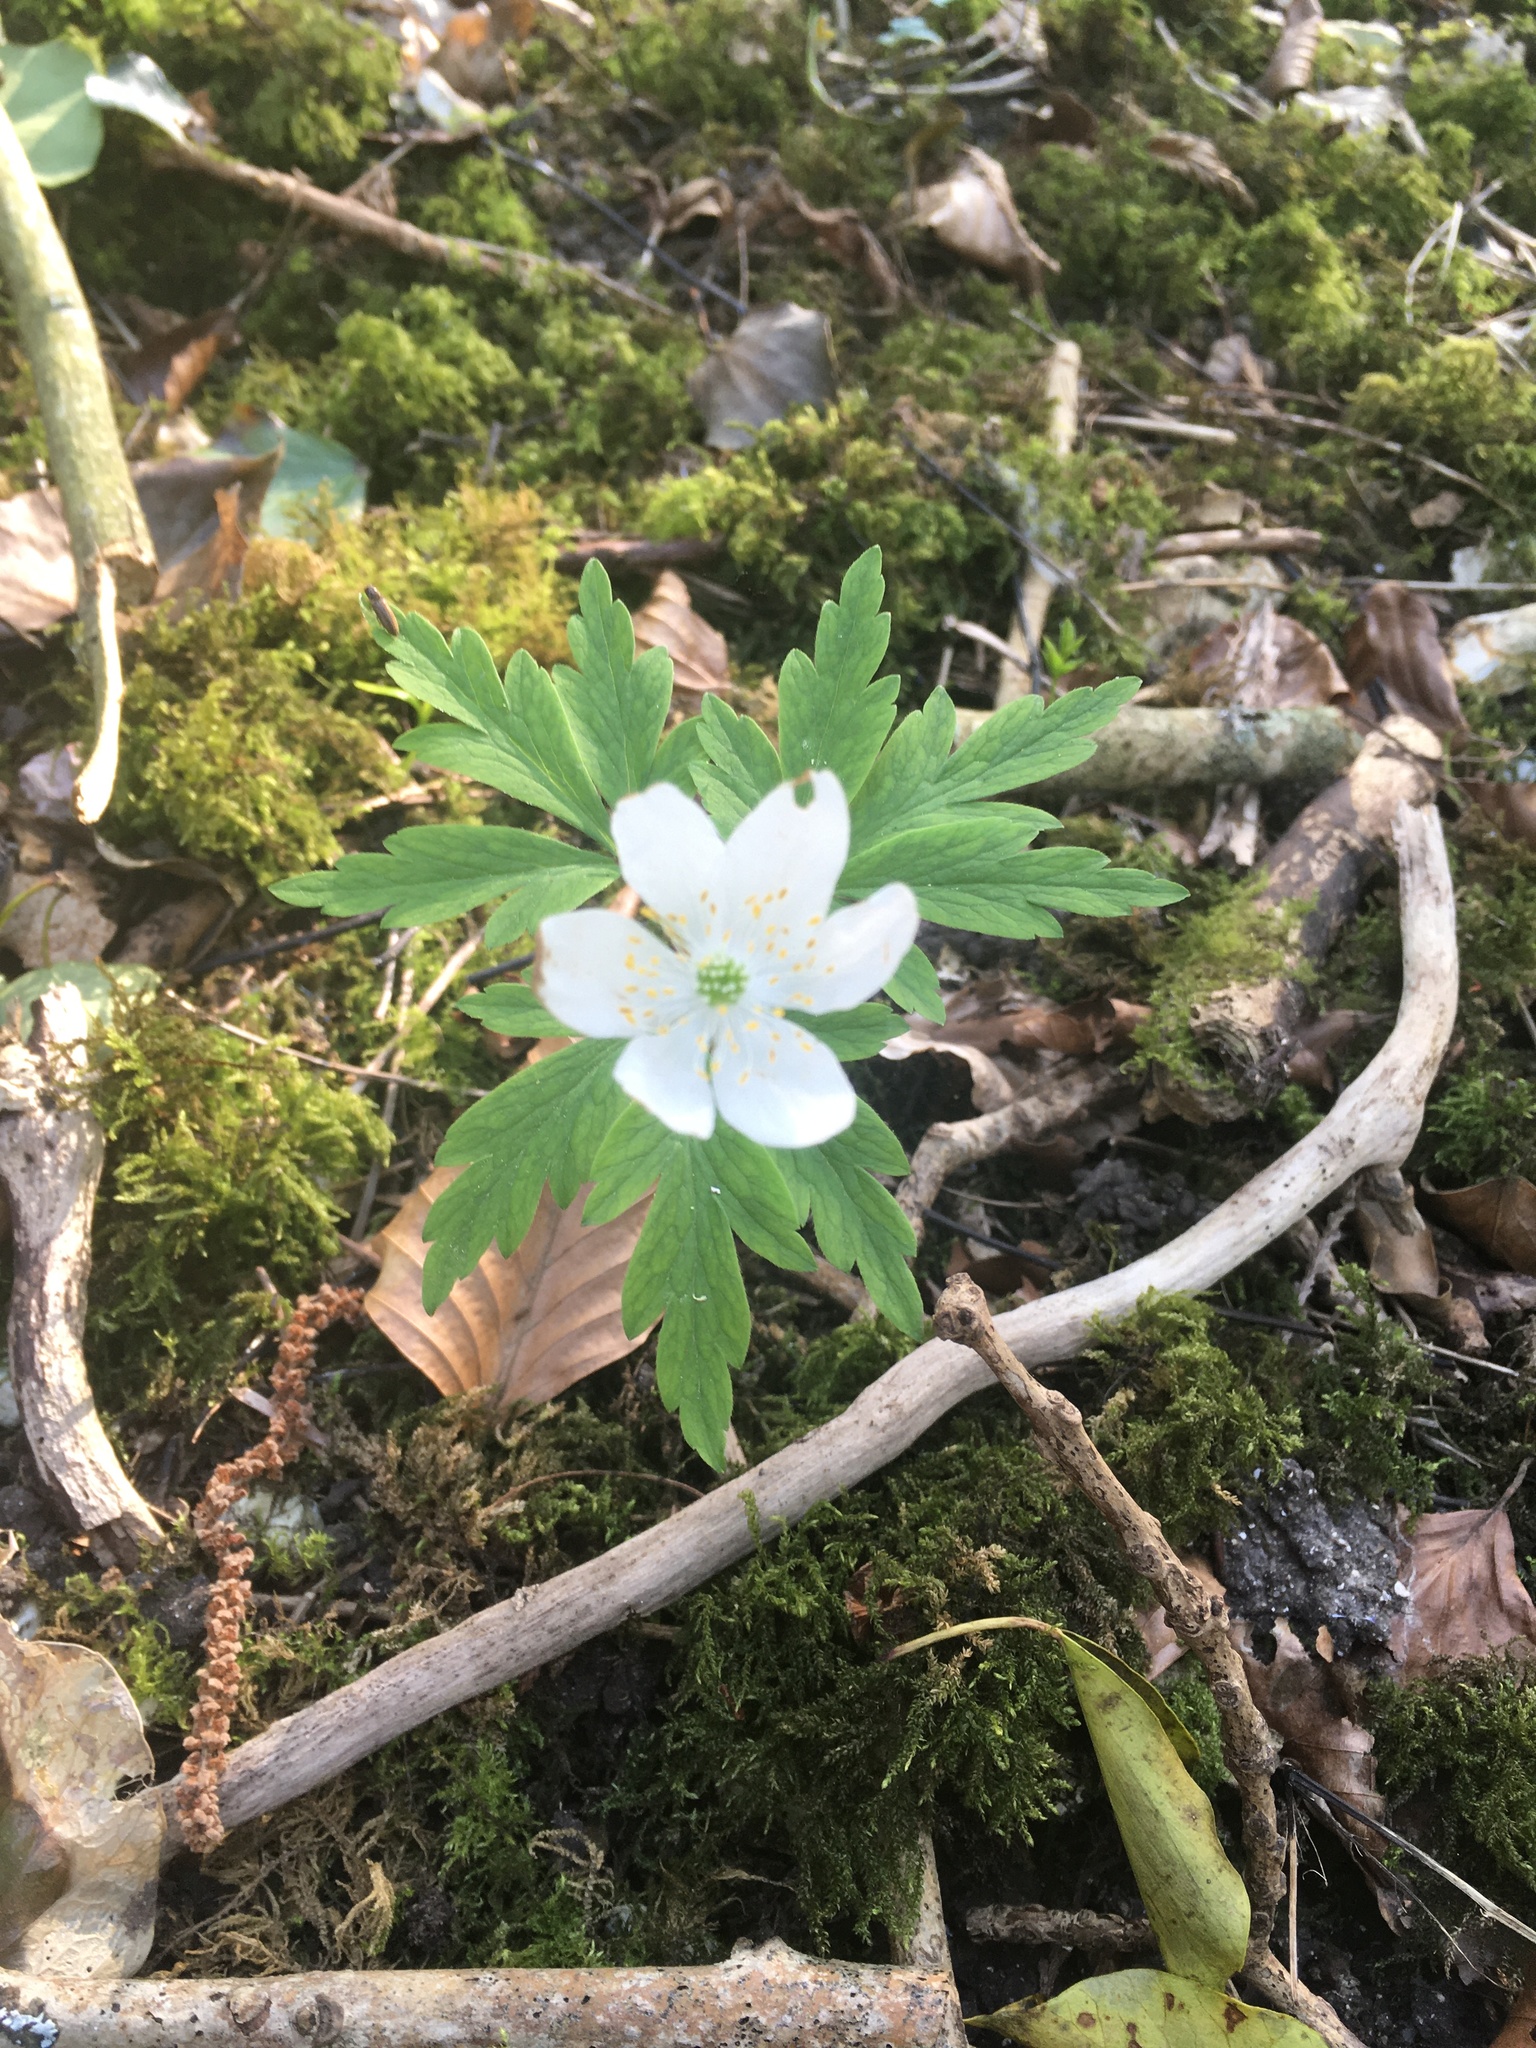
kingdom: Plantae
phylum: Tracheophyta
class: Magnoliopsida
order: Ranunculales
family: Ranunculaceae
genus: Anemone
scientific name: Anemone nemorosa
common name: Wood anemone
